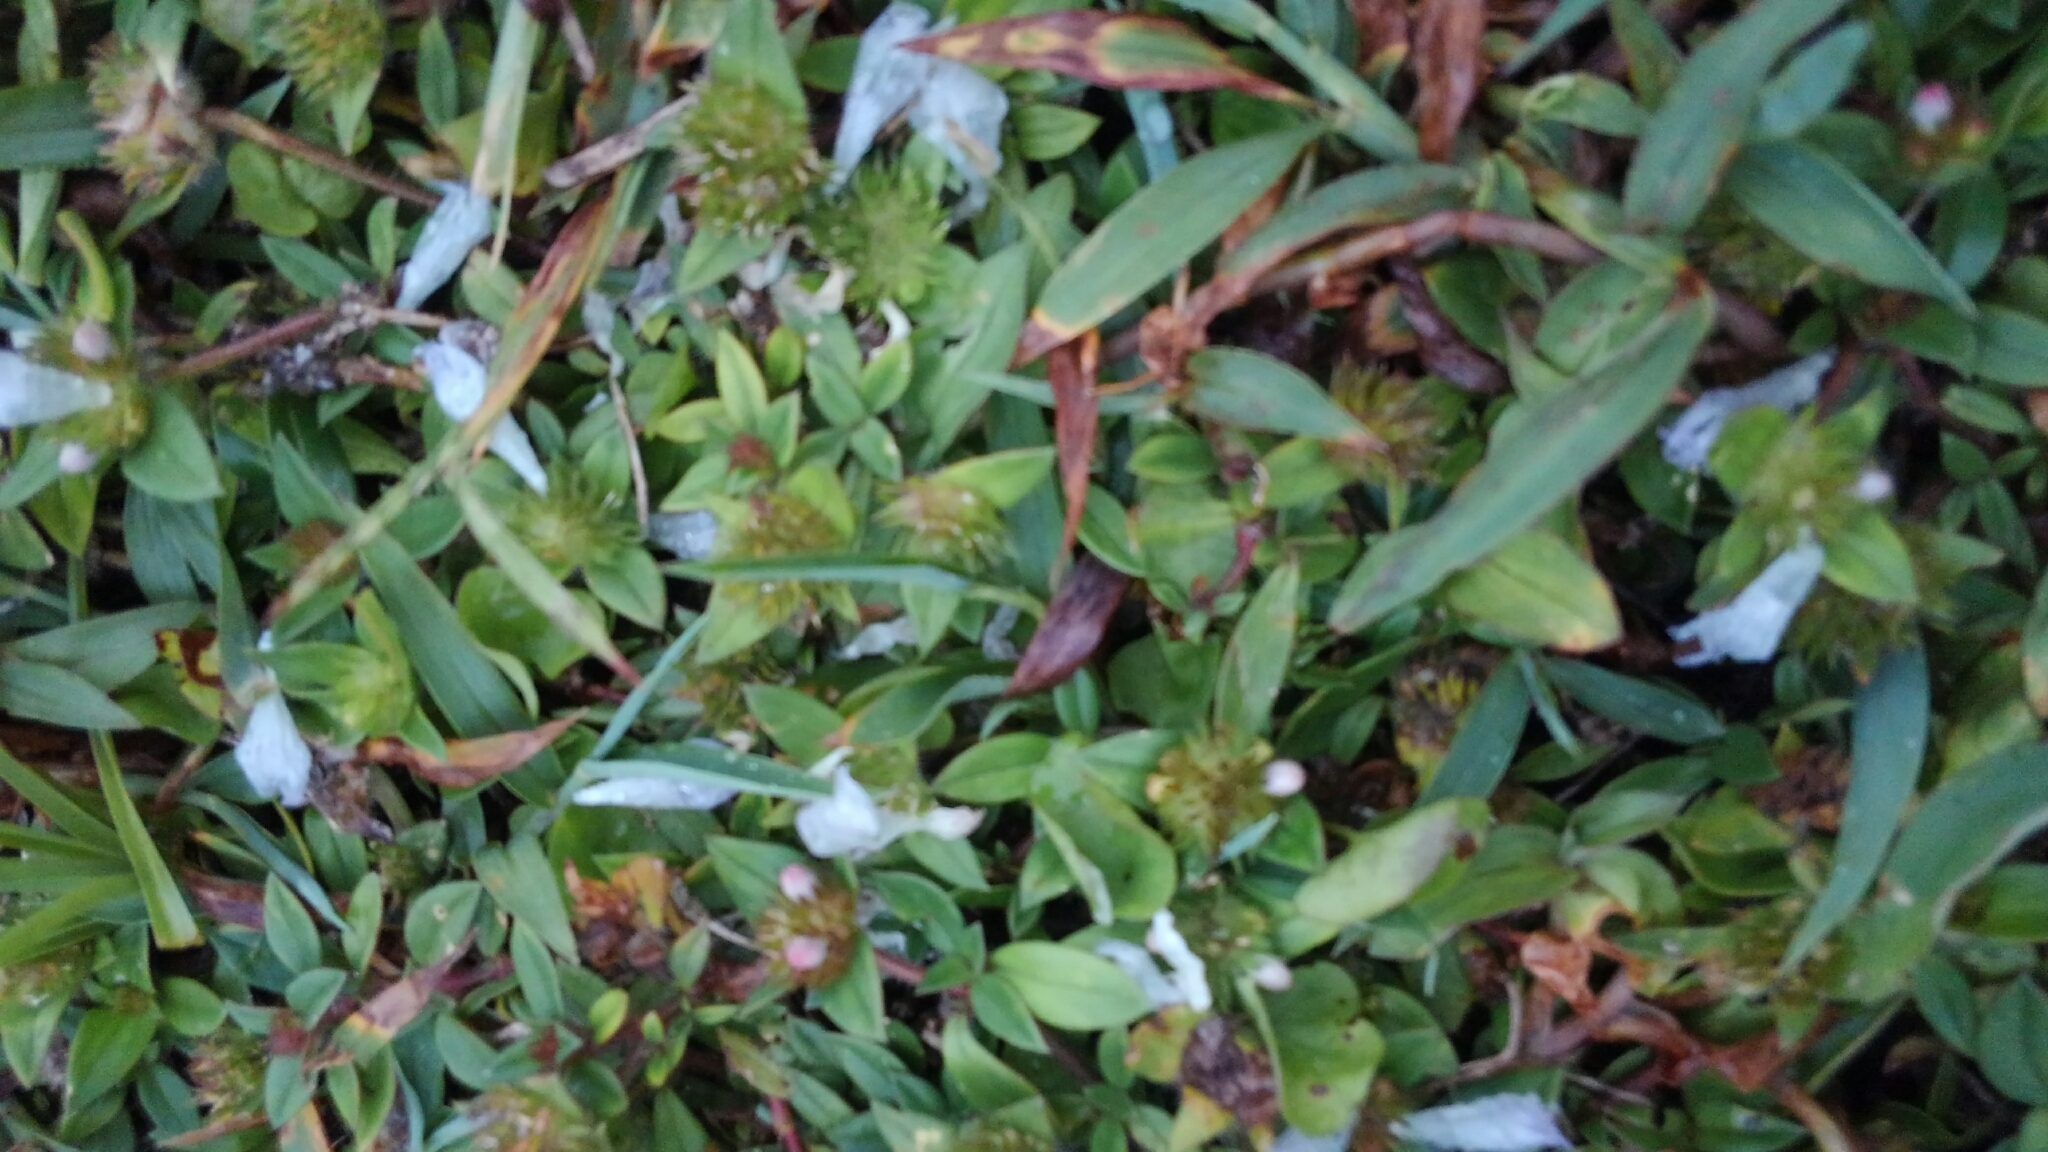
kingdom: Plantae
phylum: Tracheophyta
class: Magnoliopsida
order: Gentianales
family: Rubiaceae
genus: Richardia
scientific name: Richardia grandiflora
